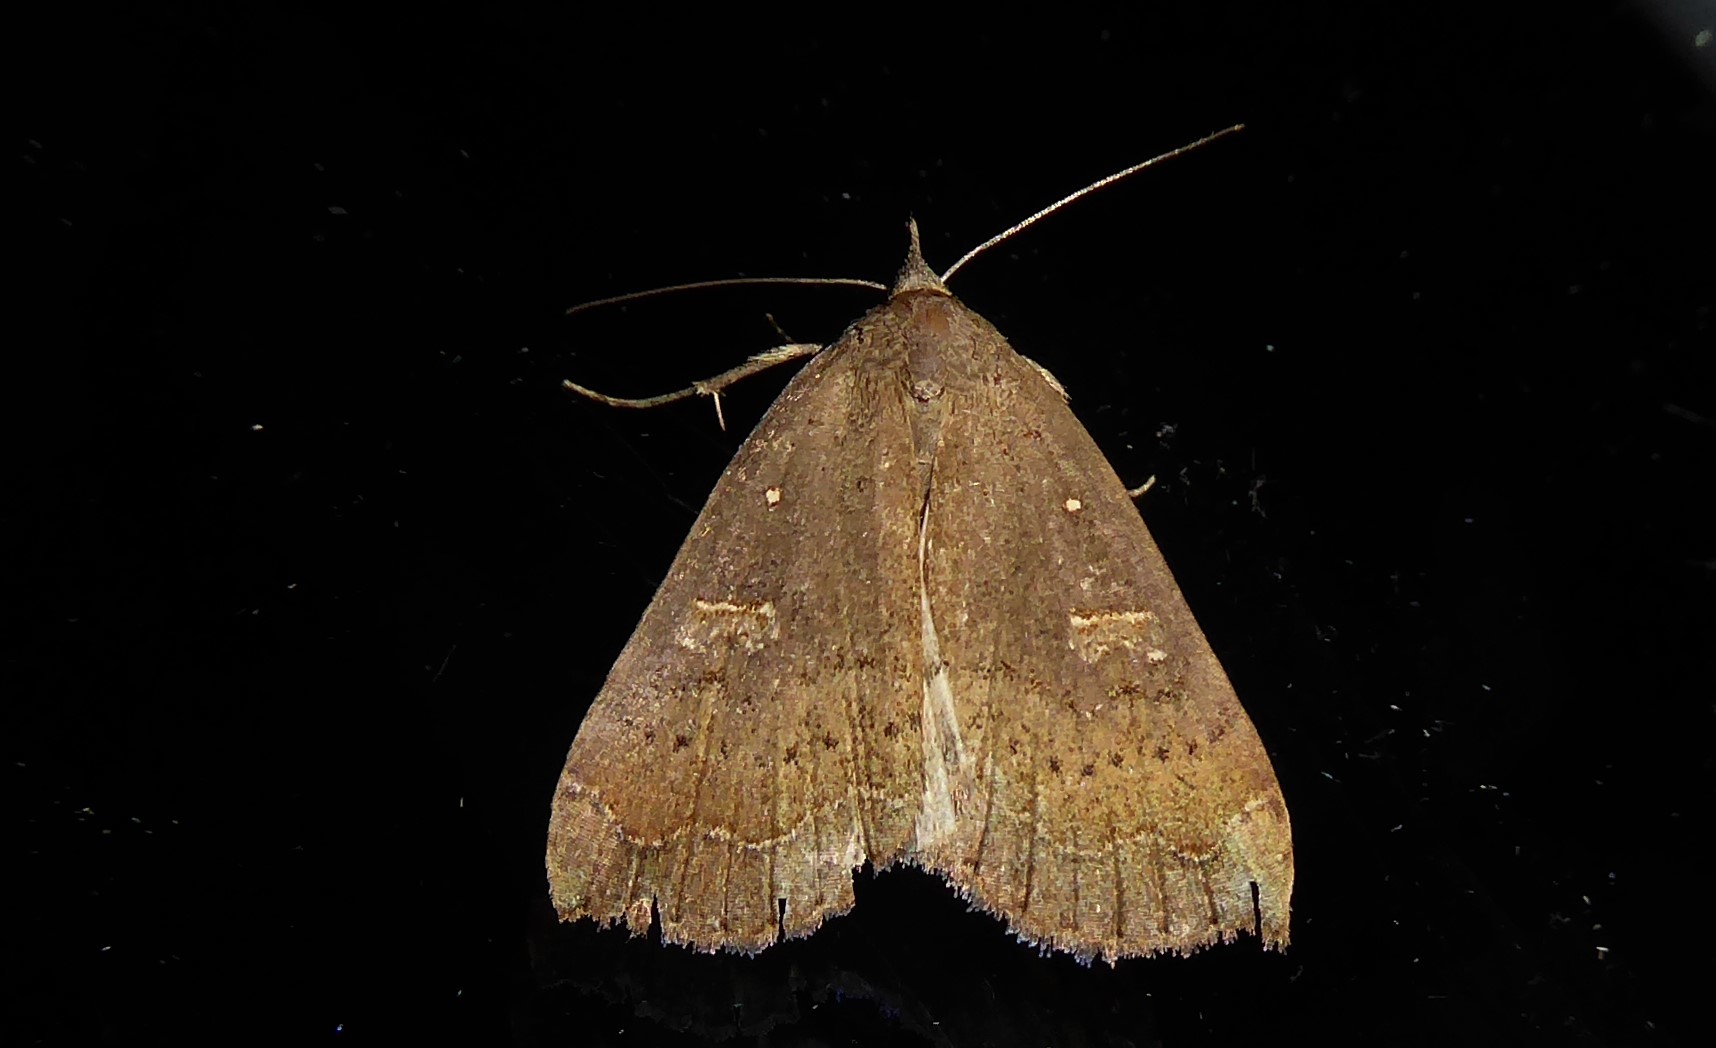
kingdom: Animalia
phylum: Arthropoda
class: Insecta
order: Lepidoptera
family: Erebidae
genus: Rhapsa
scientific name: Rhapsa scotosialis
